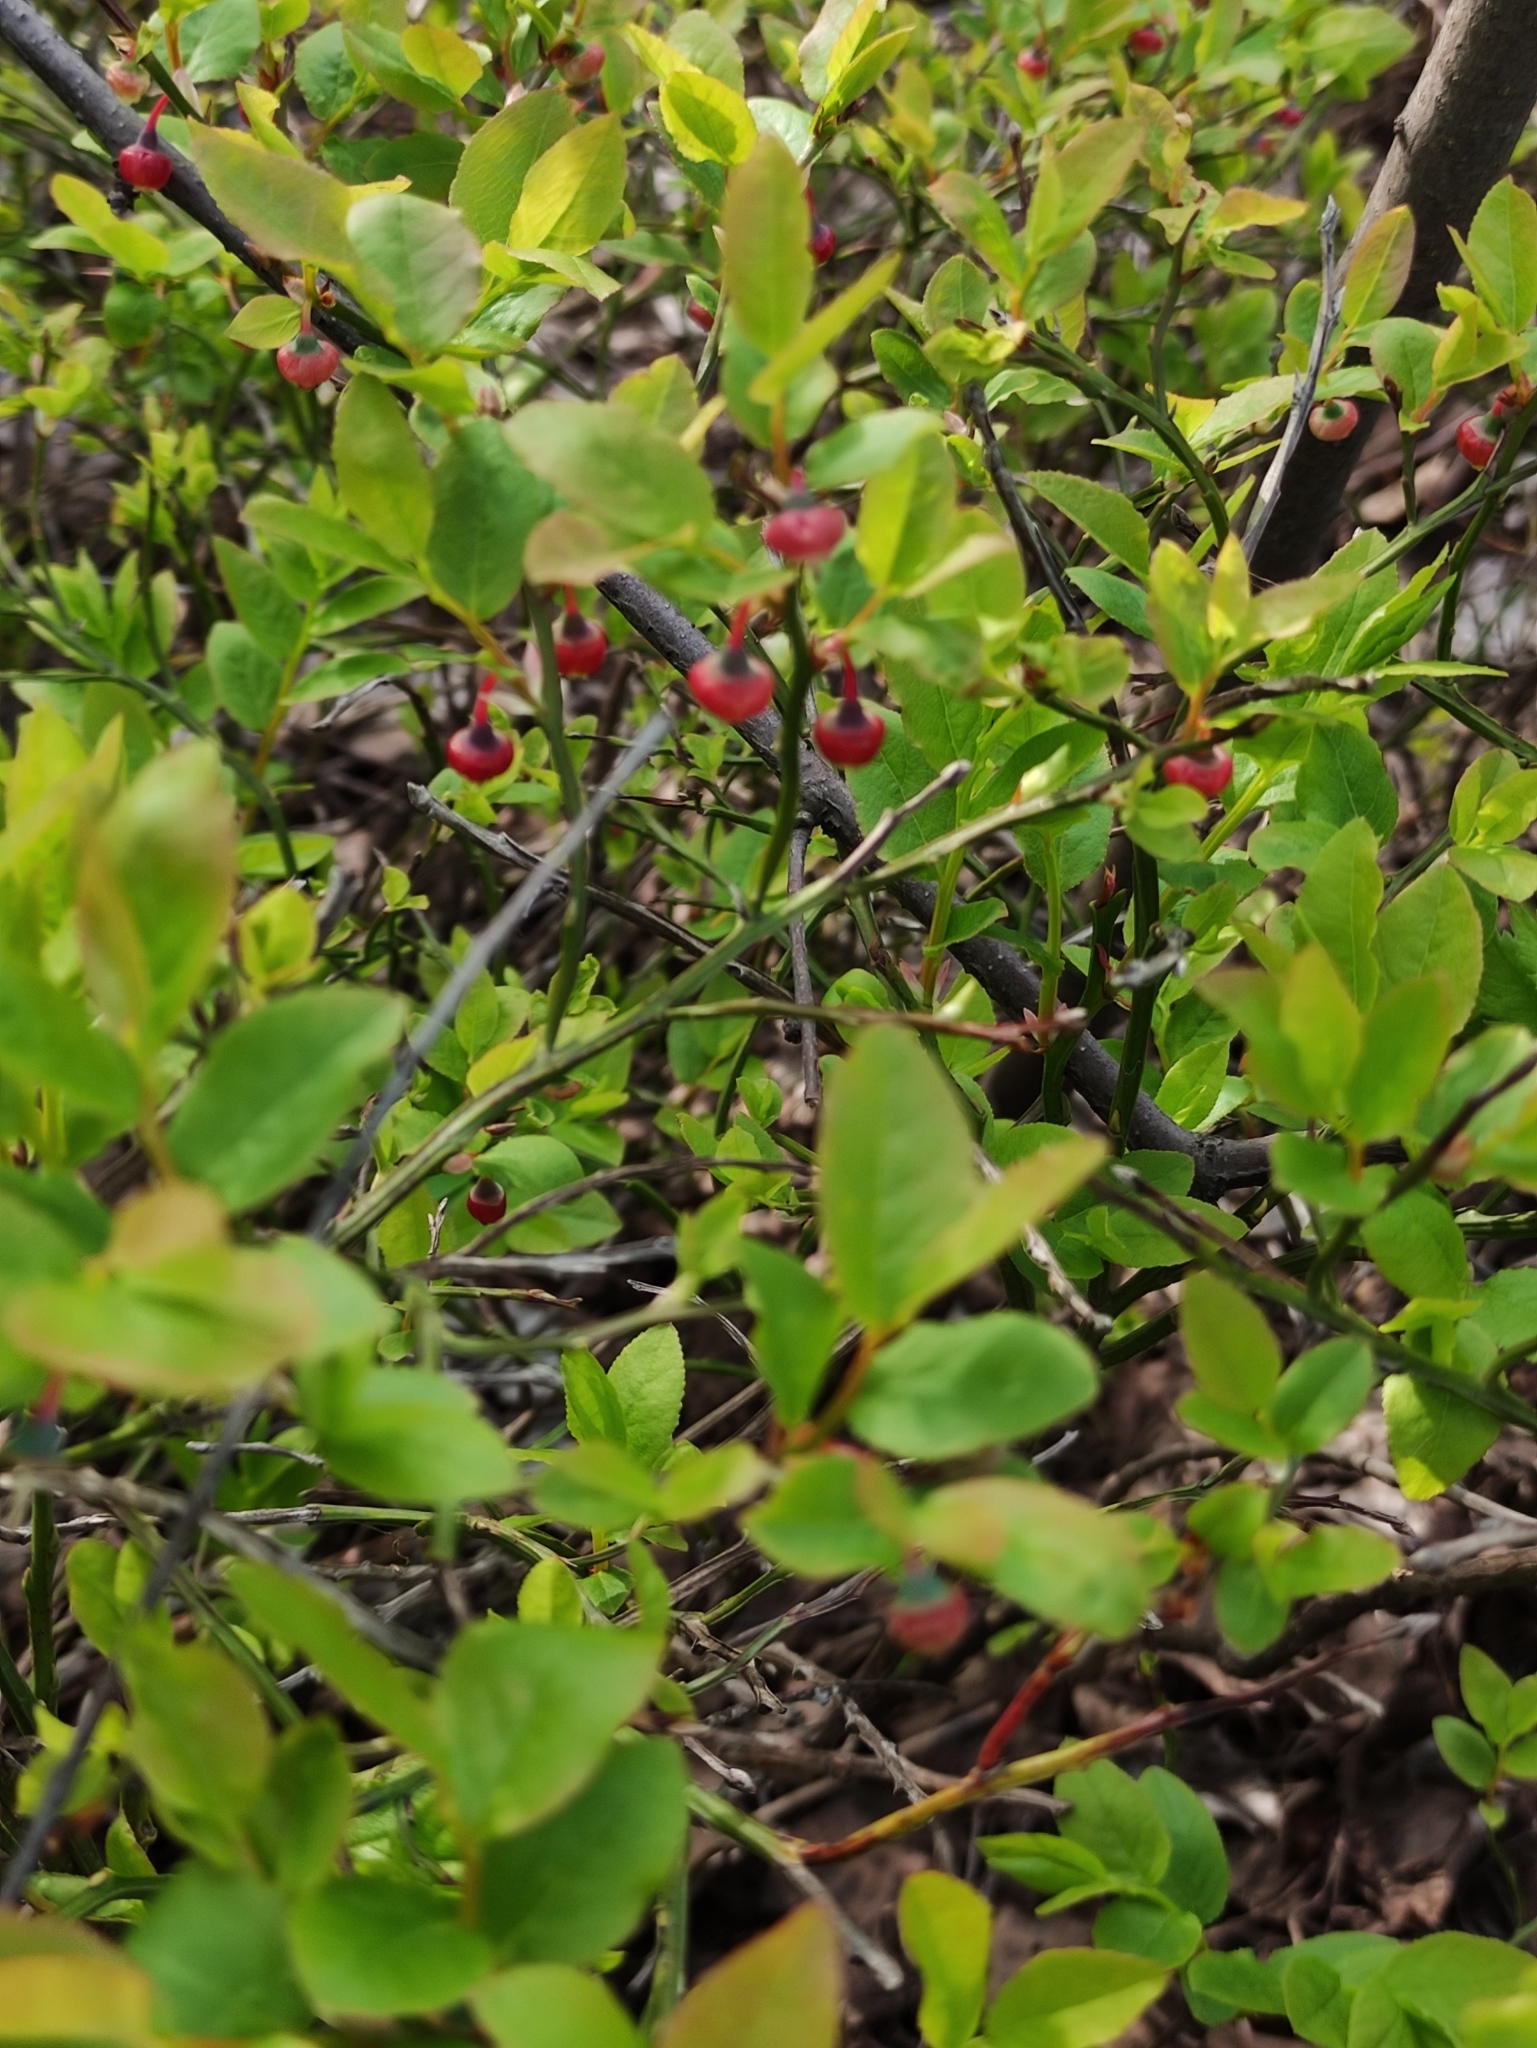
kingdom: Plantae
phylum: Tracheophyta
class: Magnoliopsida
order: Ericales
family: Ericaceae
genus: Vaccinium
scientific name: Vaccinium myrtillus
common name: Bilberry
